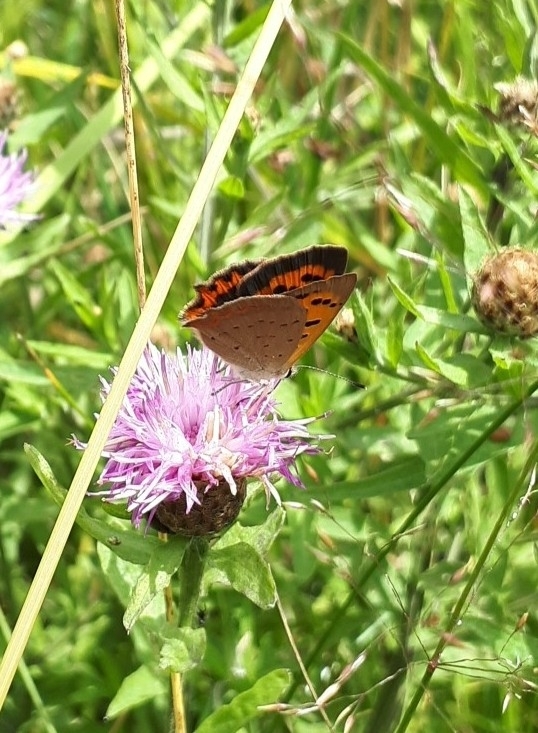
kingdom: Animalia
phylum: Arthropoda
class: Insecta
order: Lepidoptera
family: Lycaenidae
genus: Lycaena
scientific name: Lycaena phlaeas
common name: Small copper
